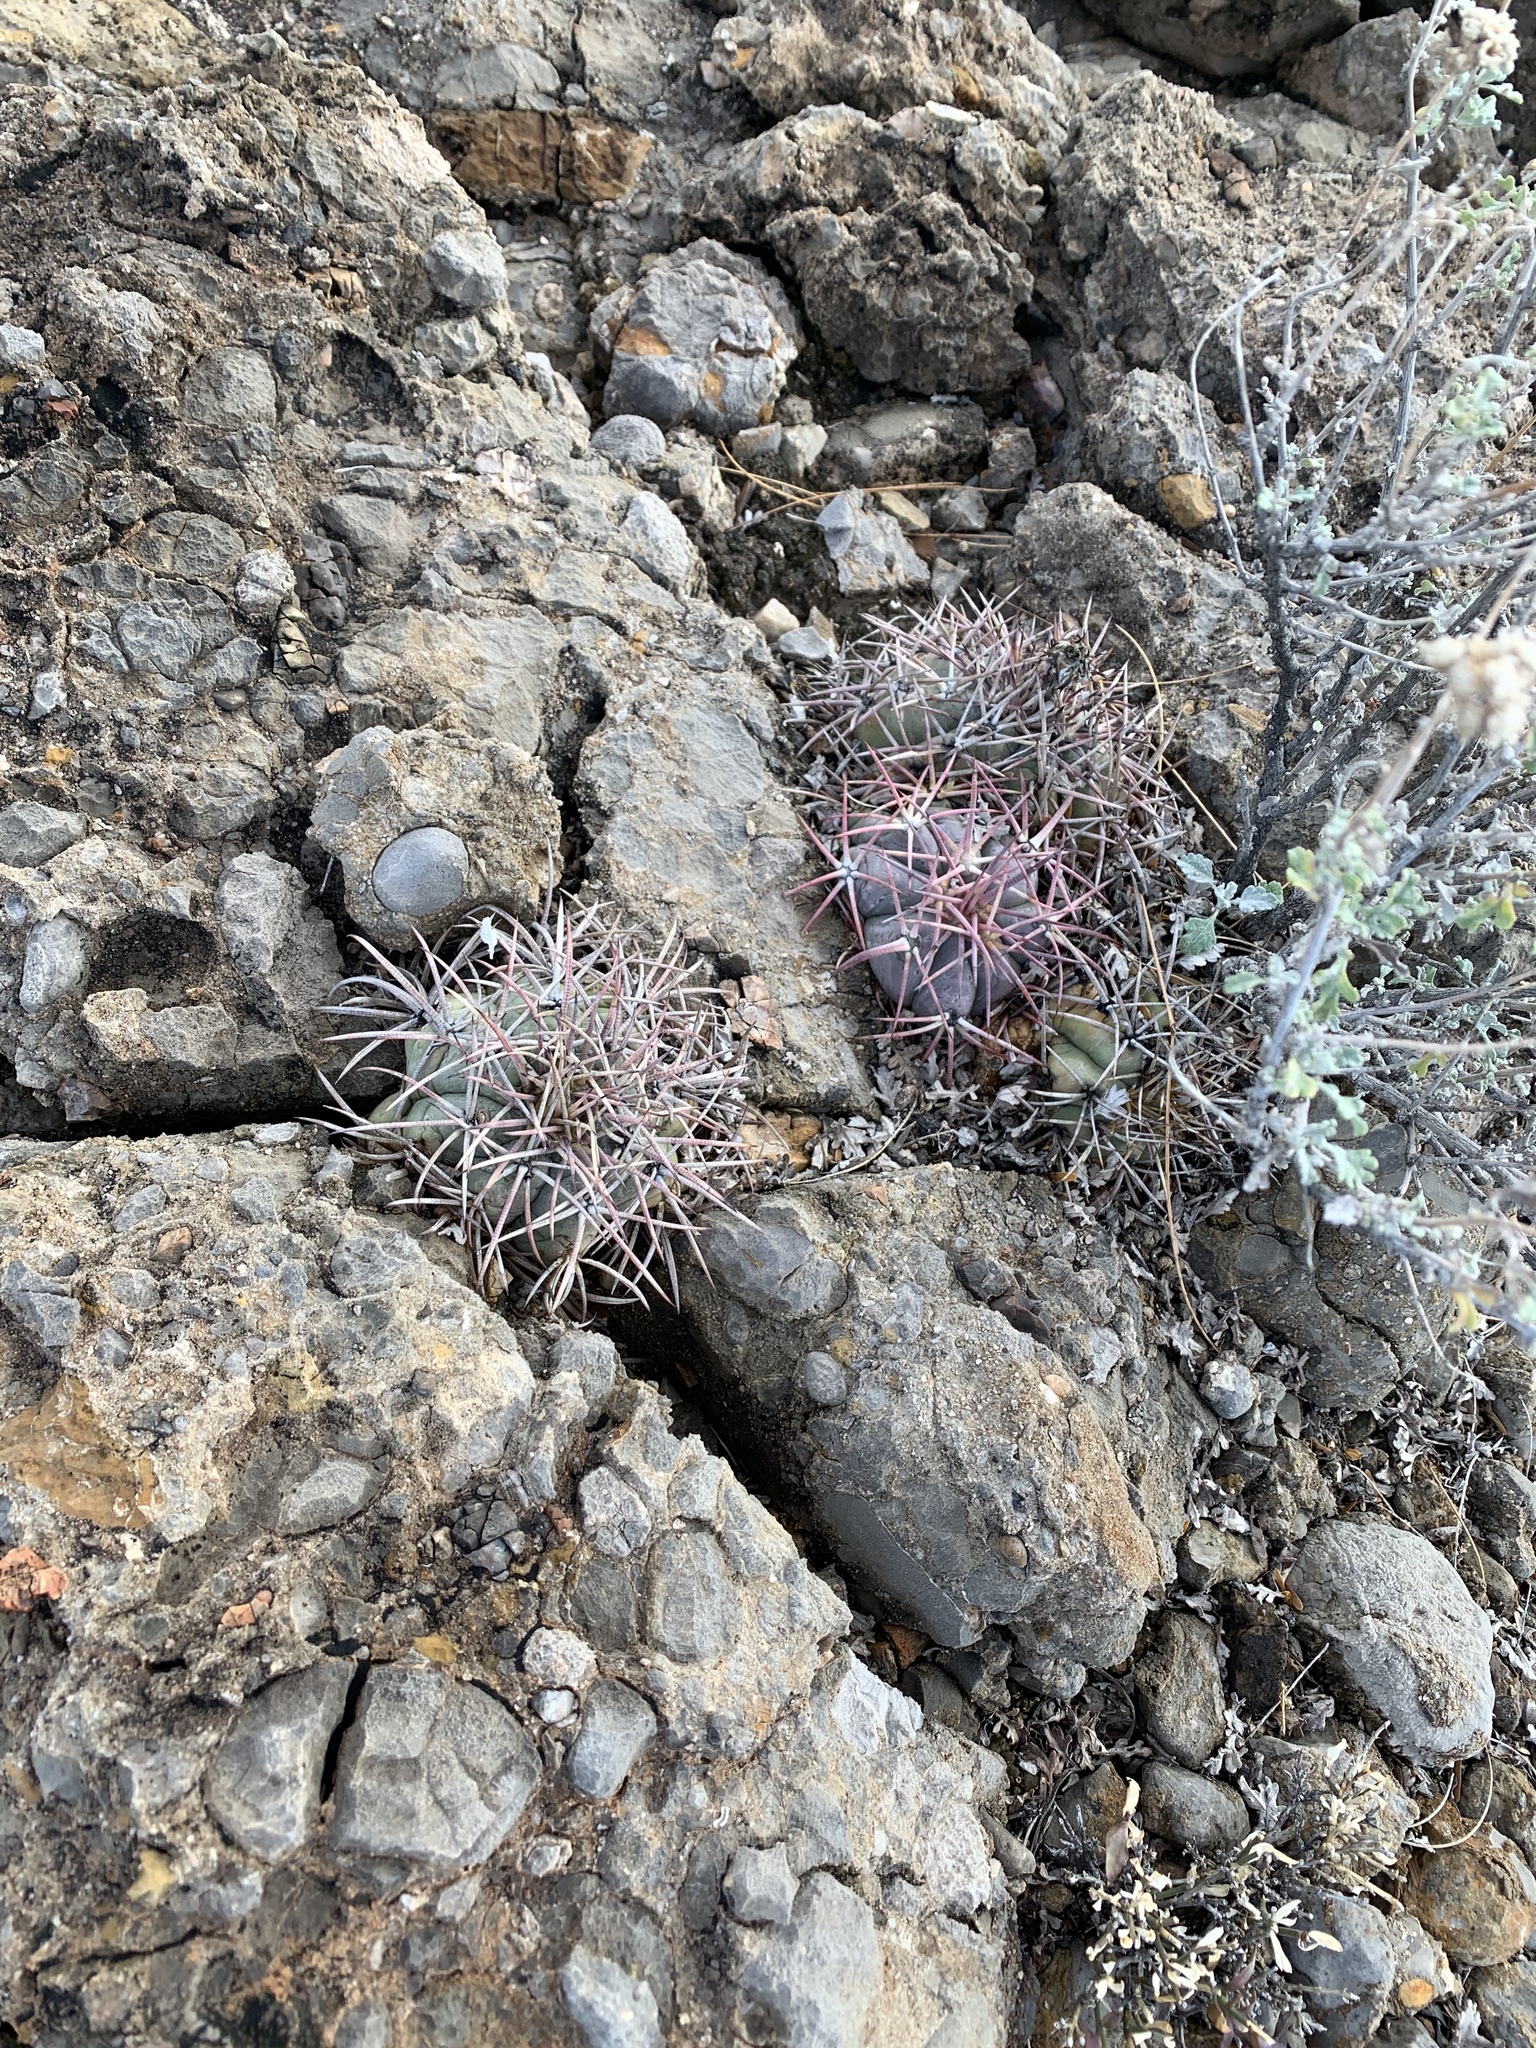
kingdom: Plantae
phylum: Tracheophyta
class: Magnoliopsida
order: Caryophyllales
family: Cactaceae
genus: Echinocactus
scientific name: Echinocactus horizonthalonius
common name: Devilshead
